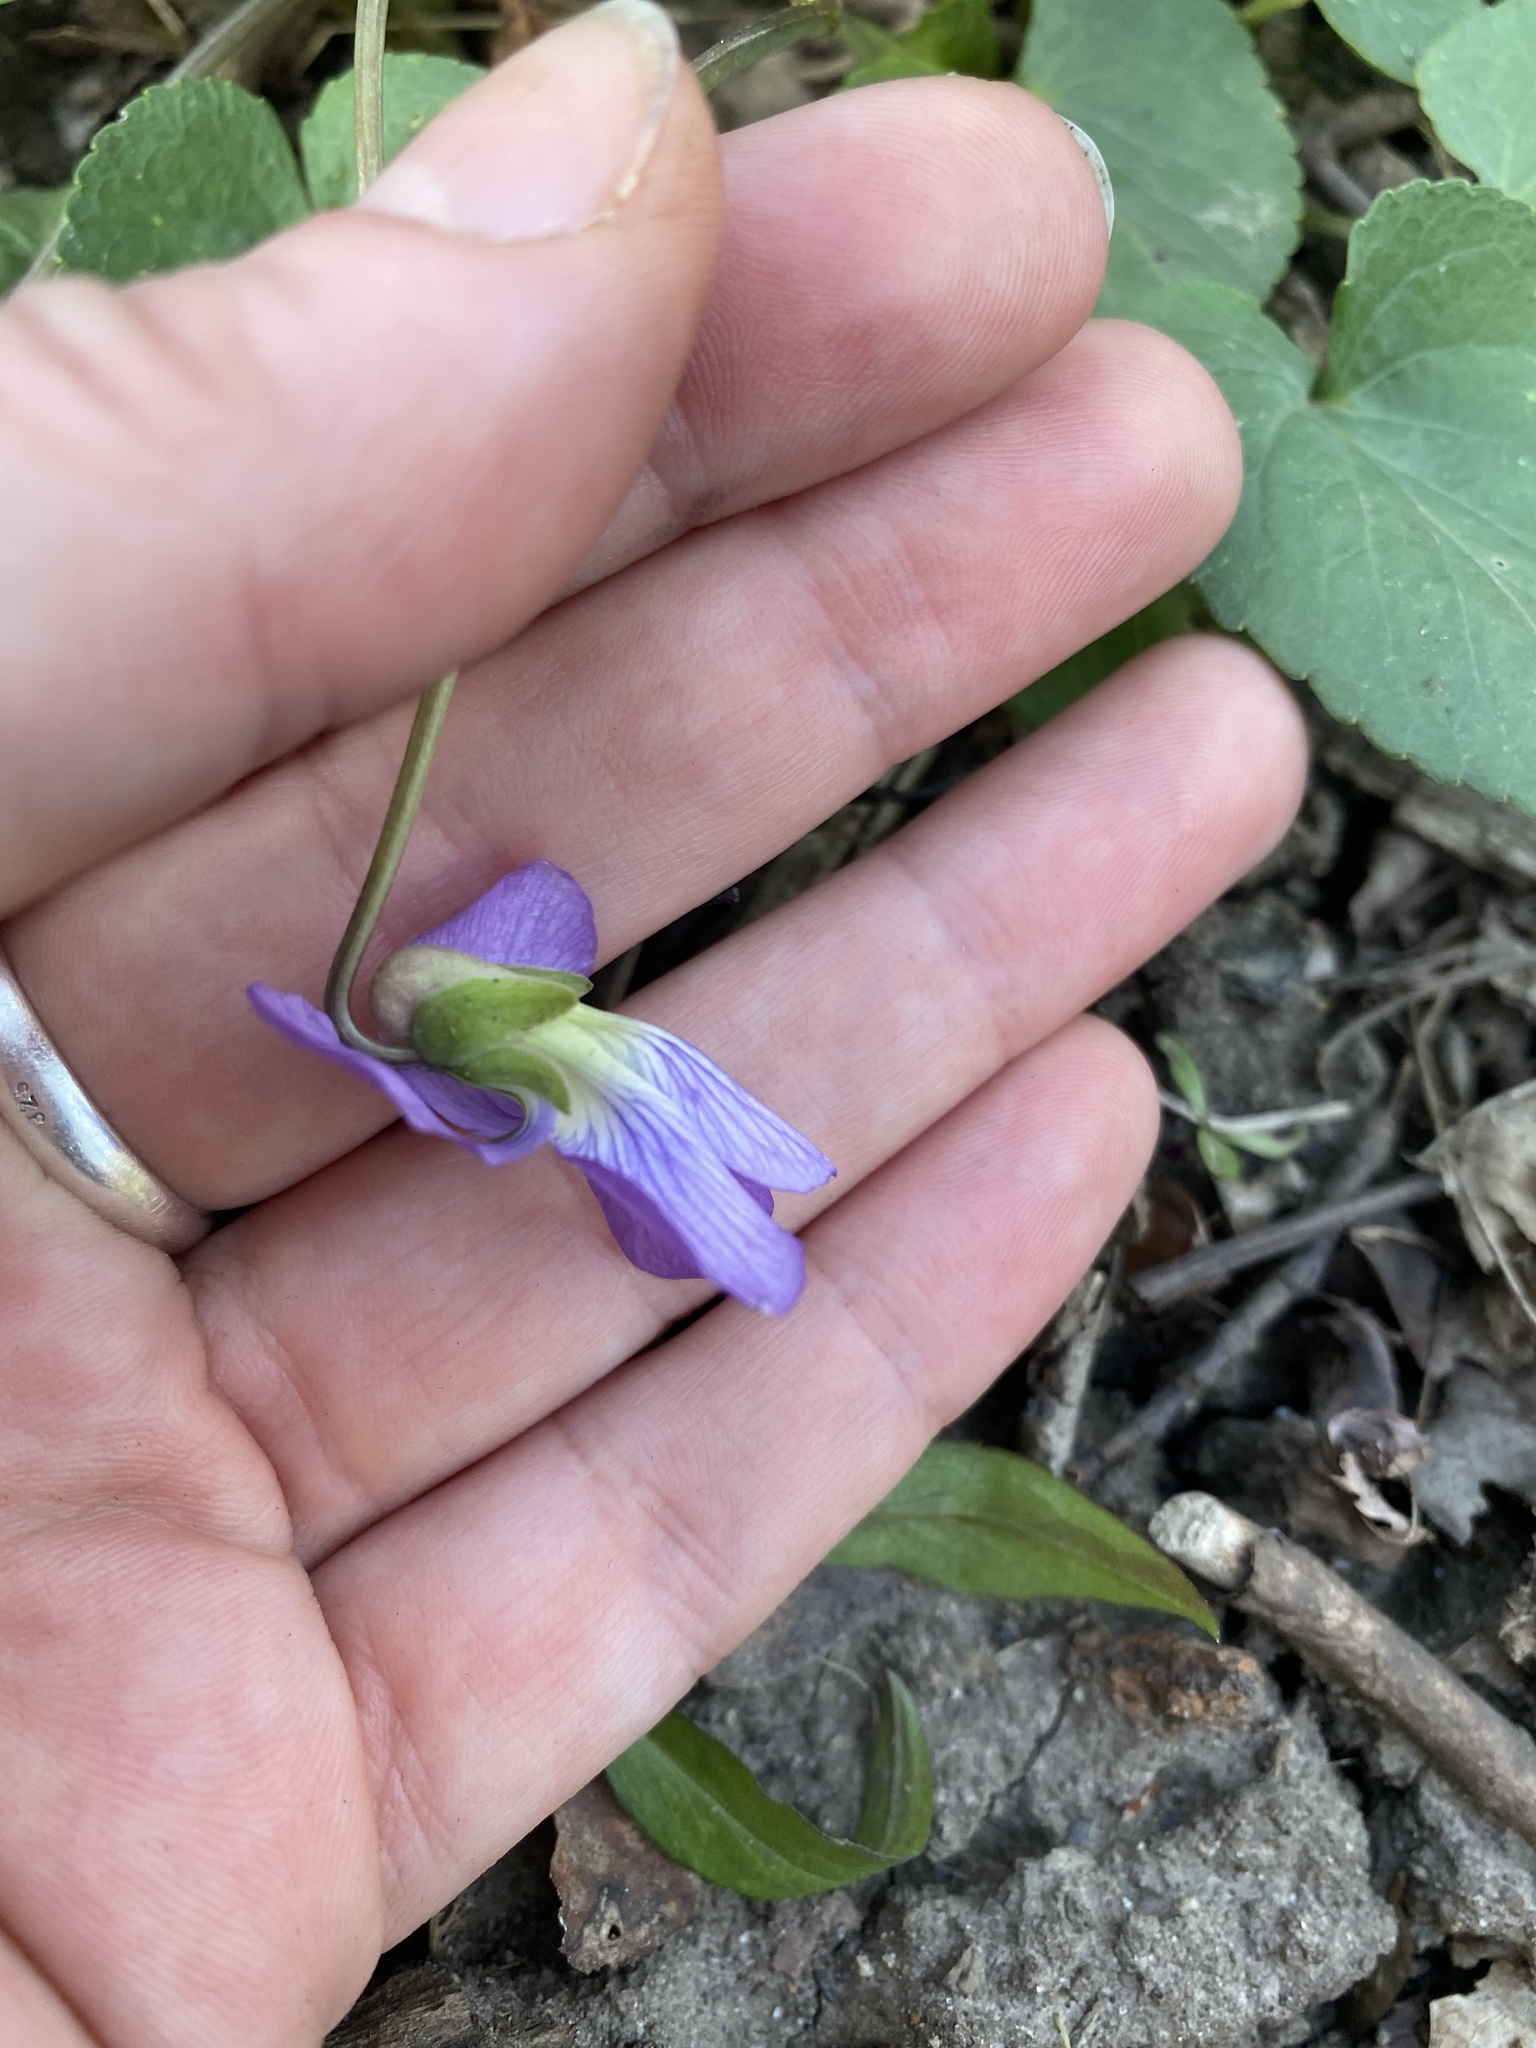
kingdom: Plantae
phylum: Tracheophyta
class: Magnoliopsida
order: Malpighiales
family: Violaceae
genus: Viola
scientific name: Viola sororia
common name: Dooryard violet
